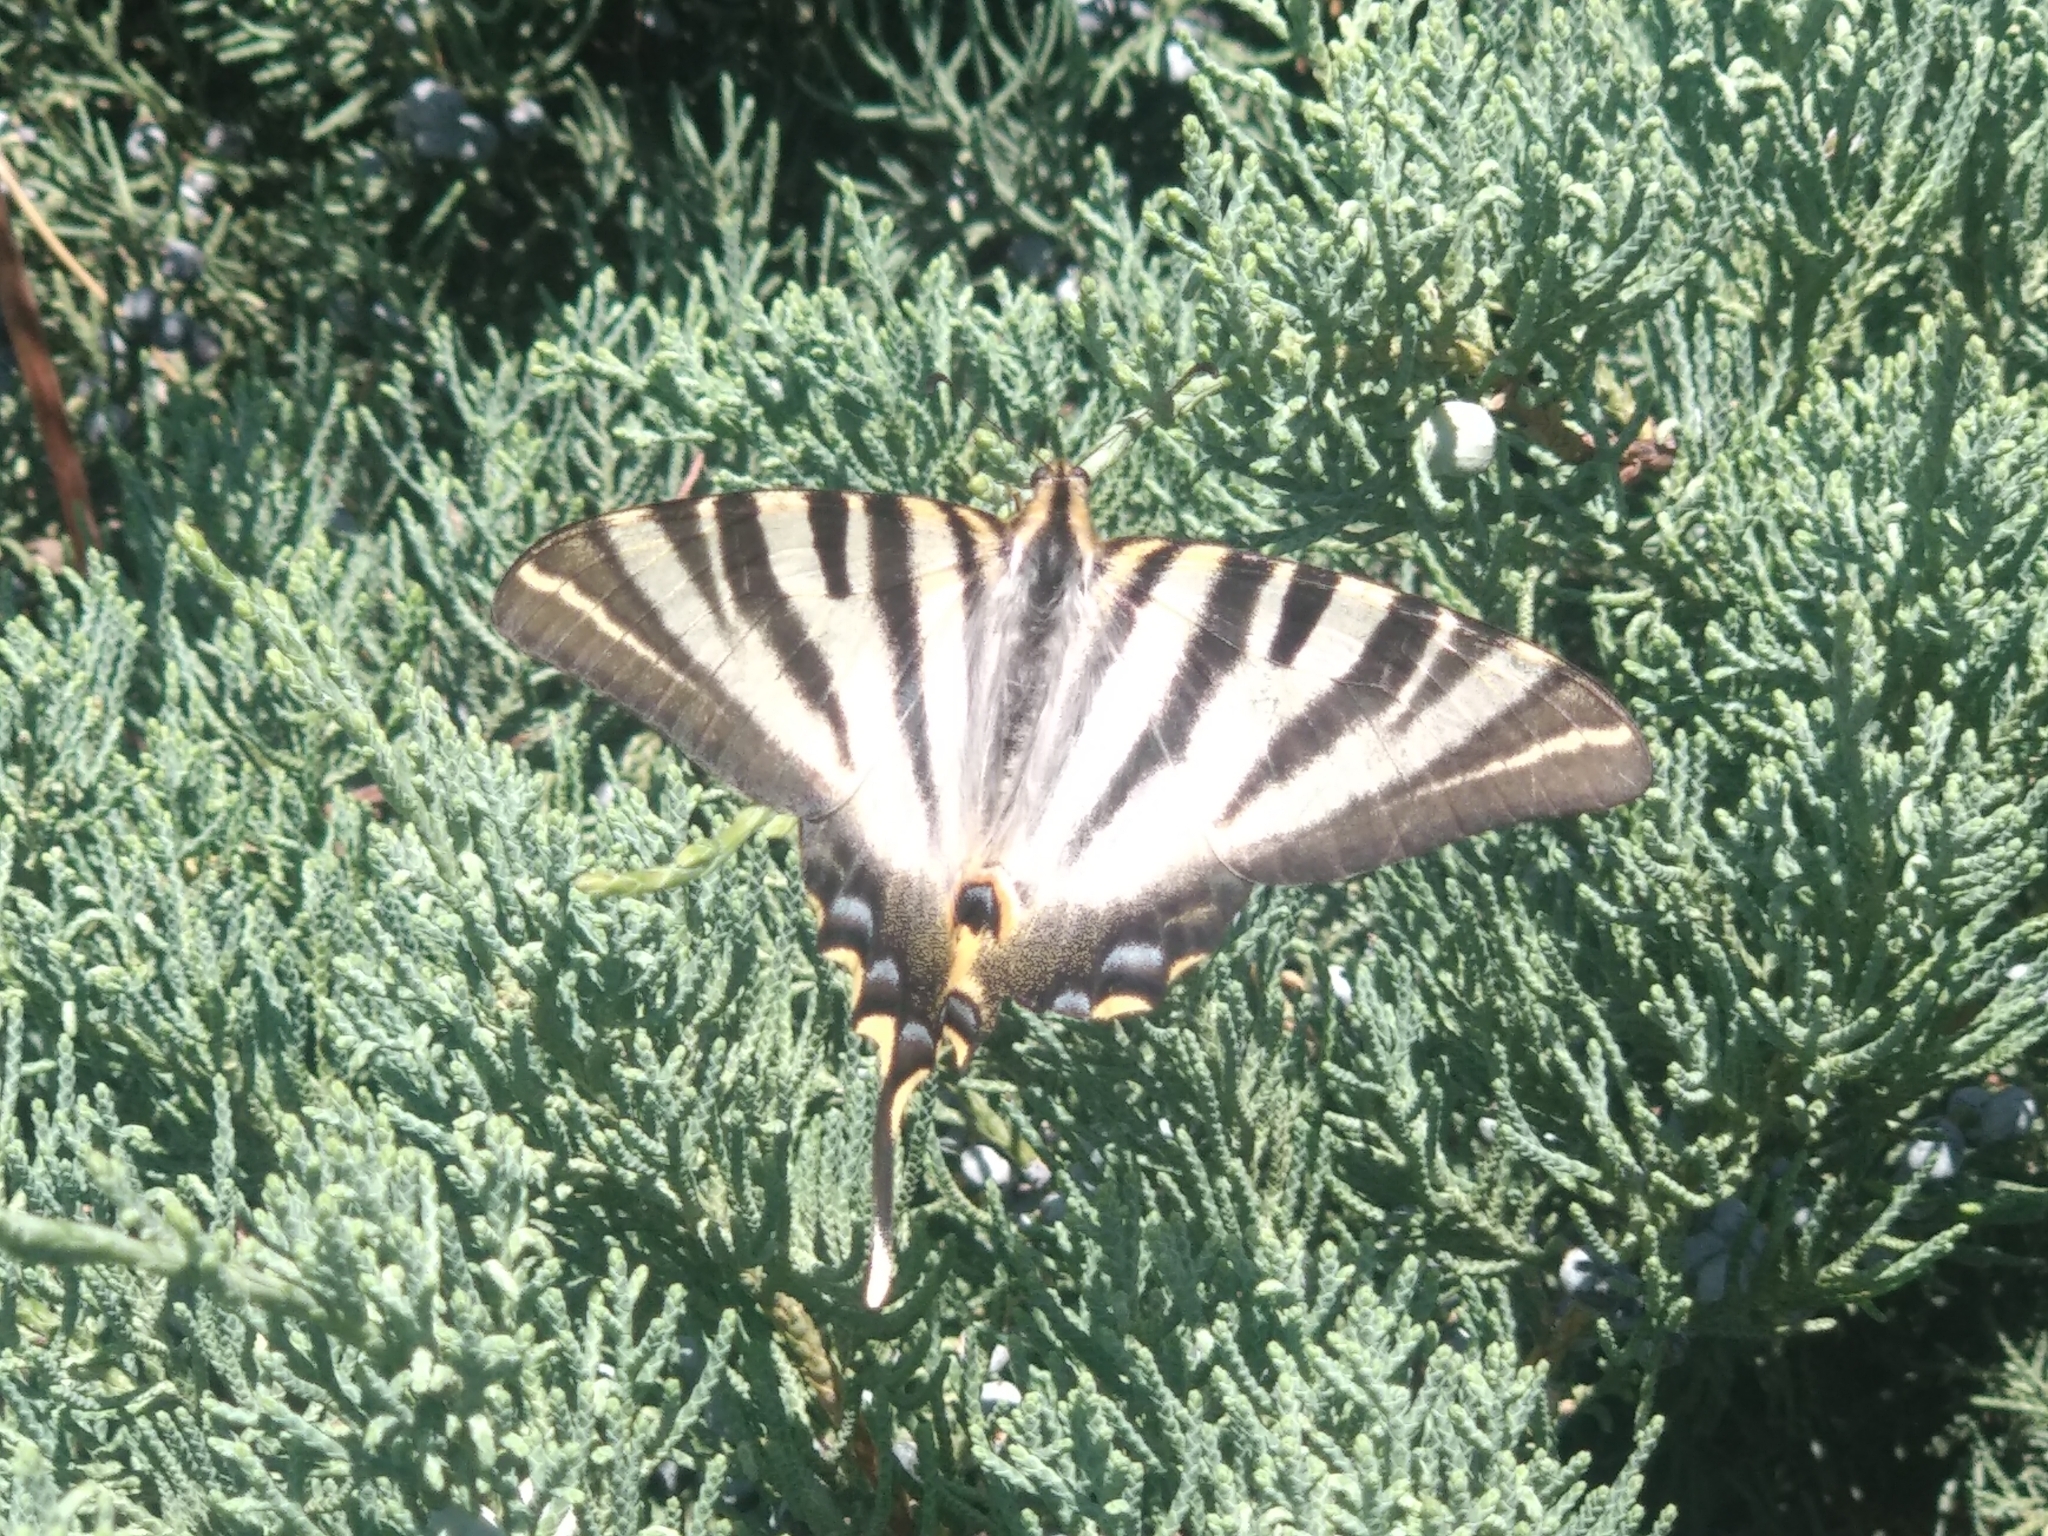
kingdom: Animalia
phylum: Arthropoda
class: Insecta
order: Lepidoptera
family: Papilionidae
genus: Iphiclides
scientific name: Iphiclides feisthamelii
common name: Iberian scarce swallowtail
